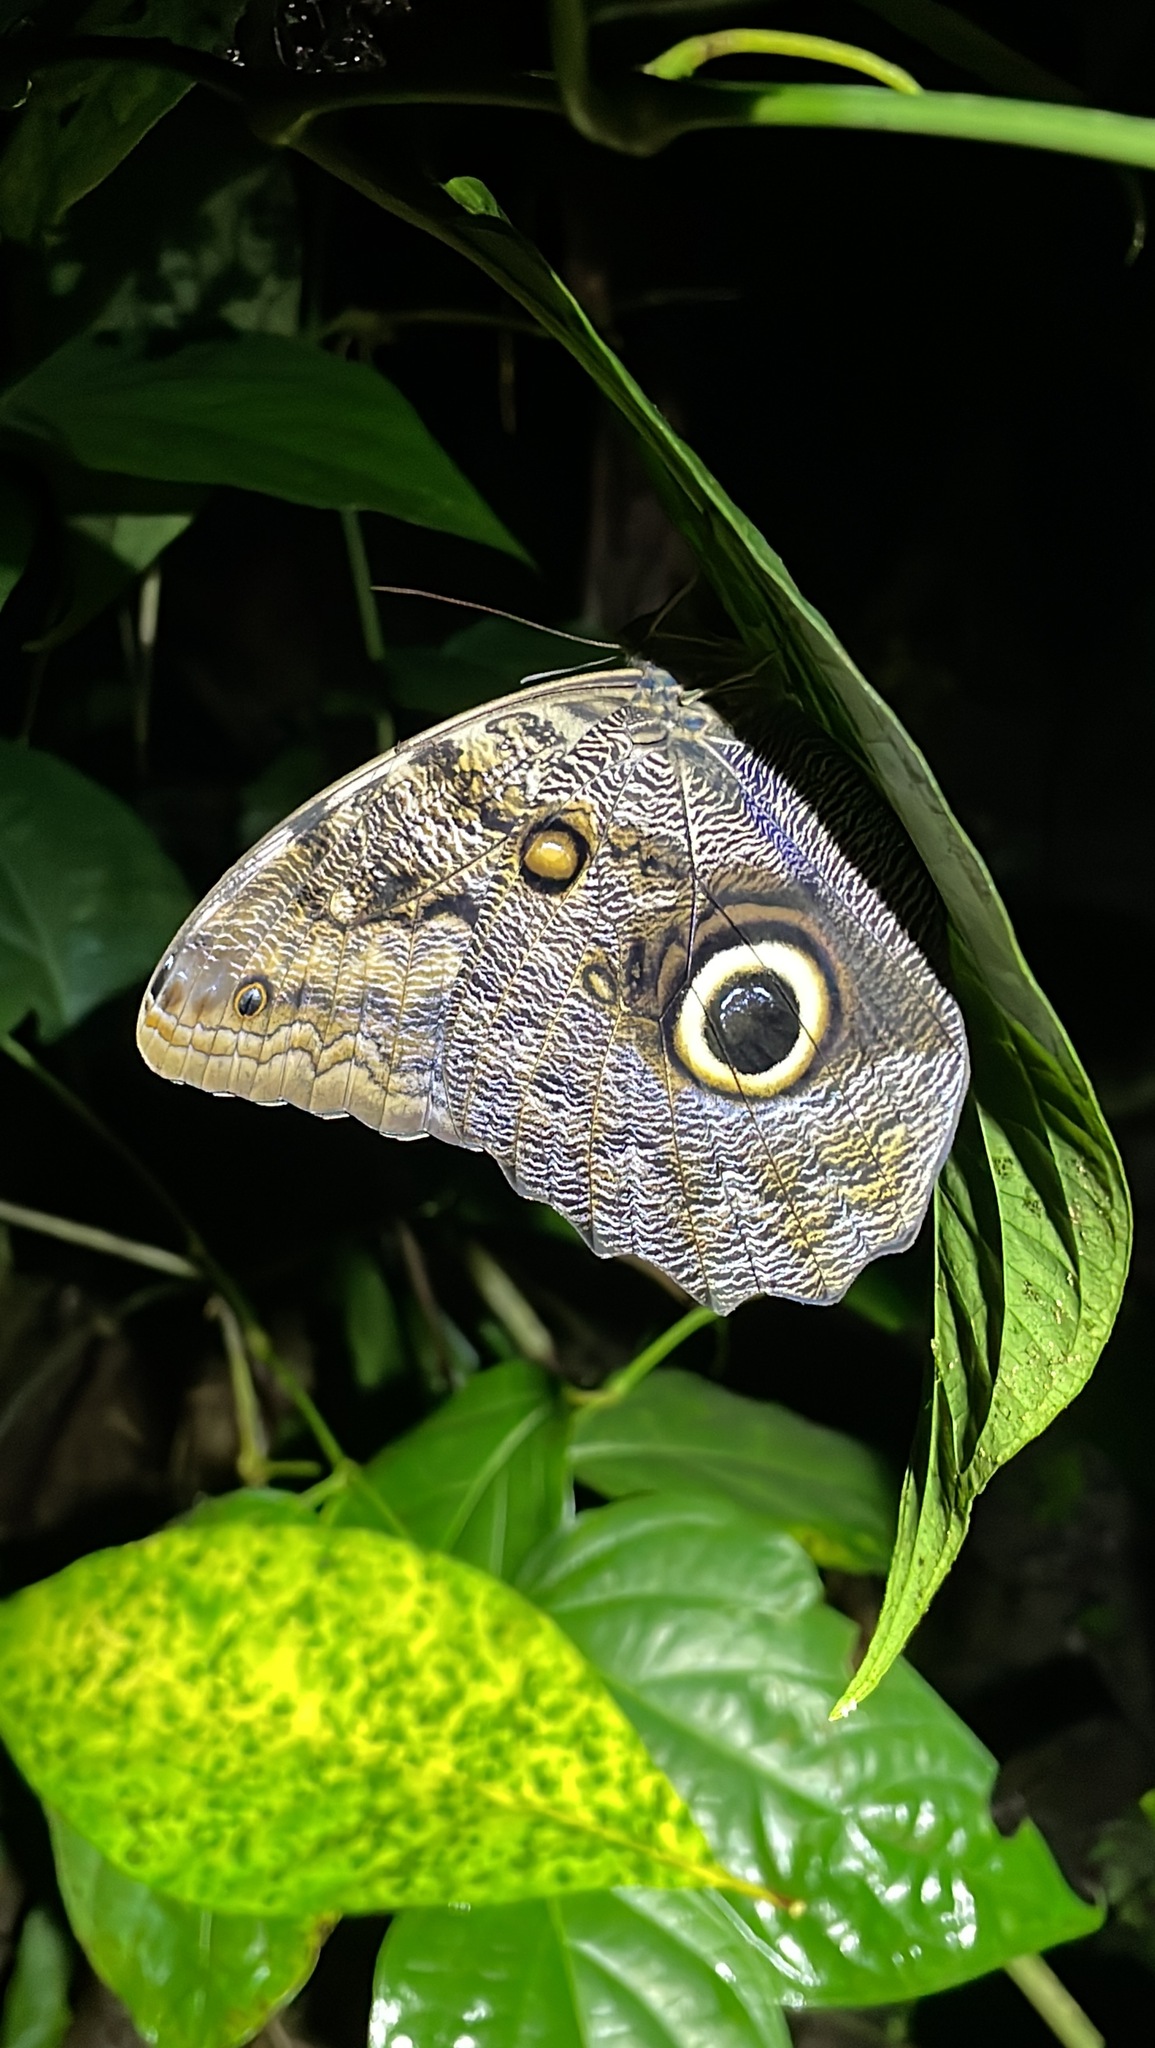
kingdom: Animalia
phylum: Arthropoda
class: Insecta
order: Lepidoptera
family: Nymphalidae
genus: Caligo
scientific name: Caligo brasiliensis
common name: Dark owl-butterfly
